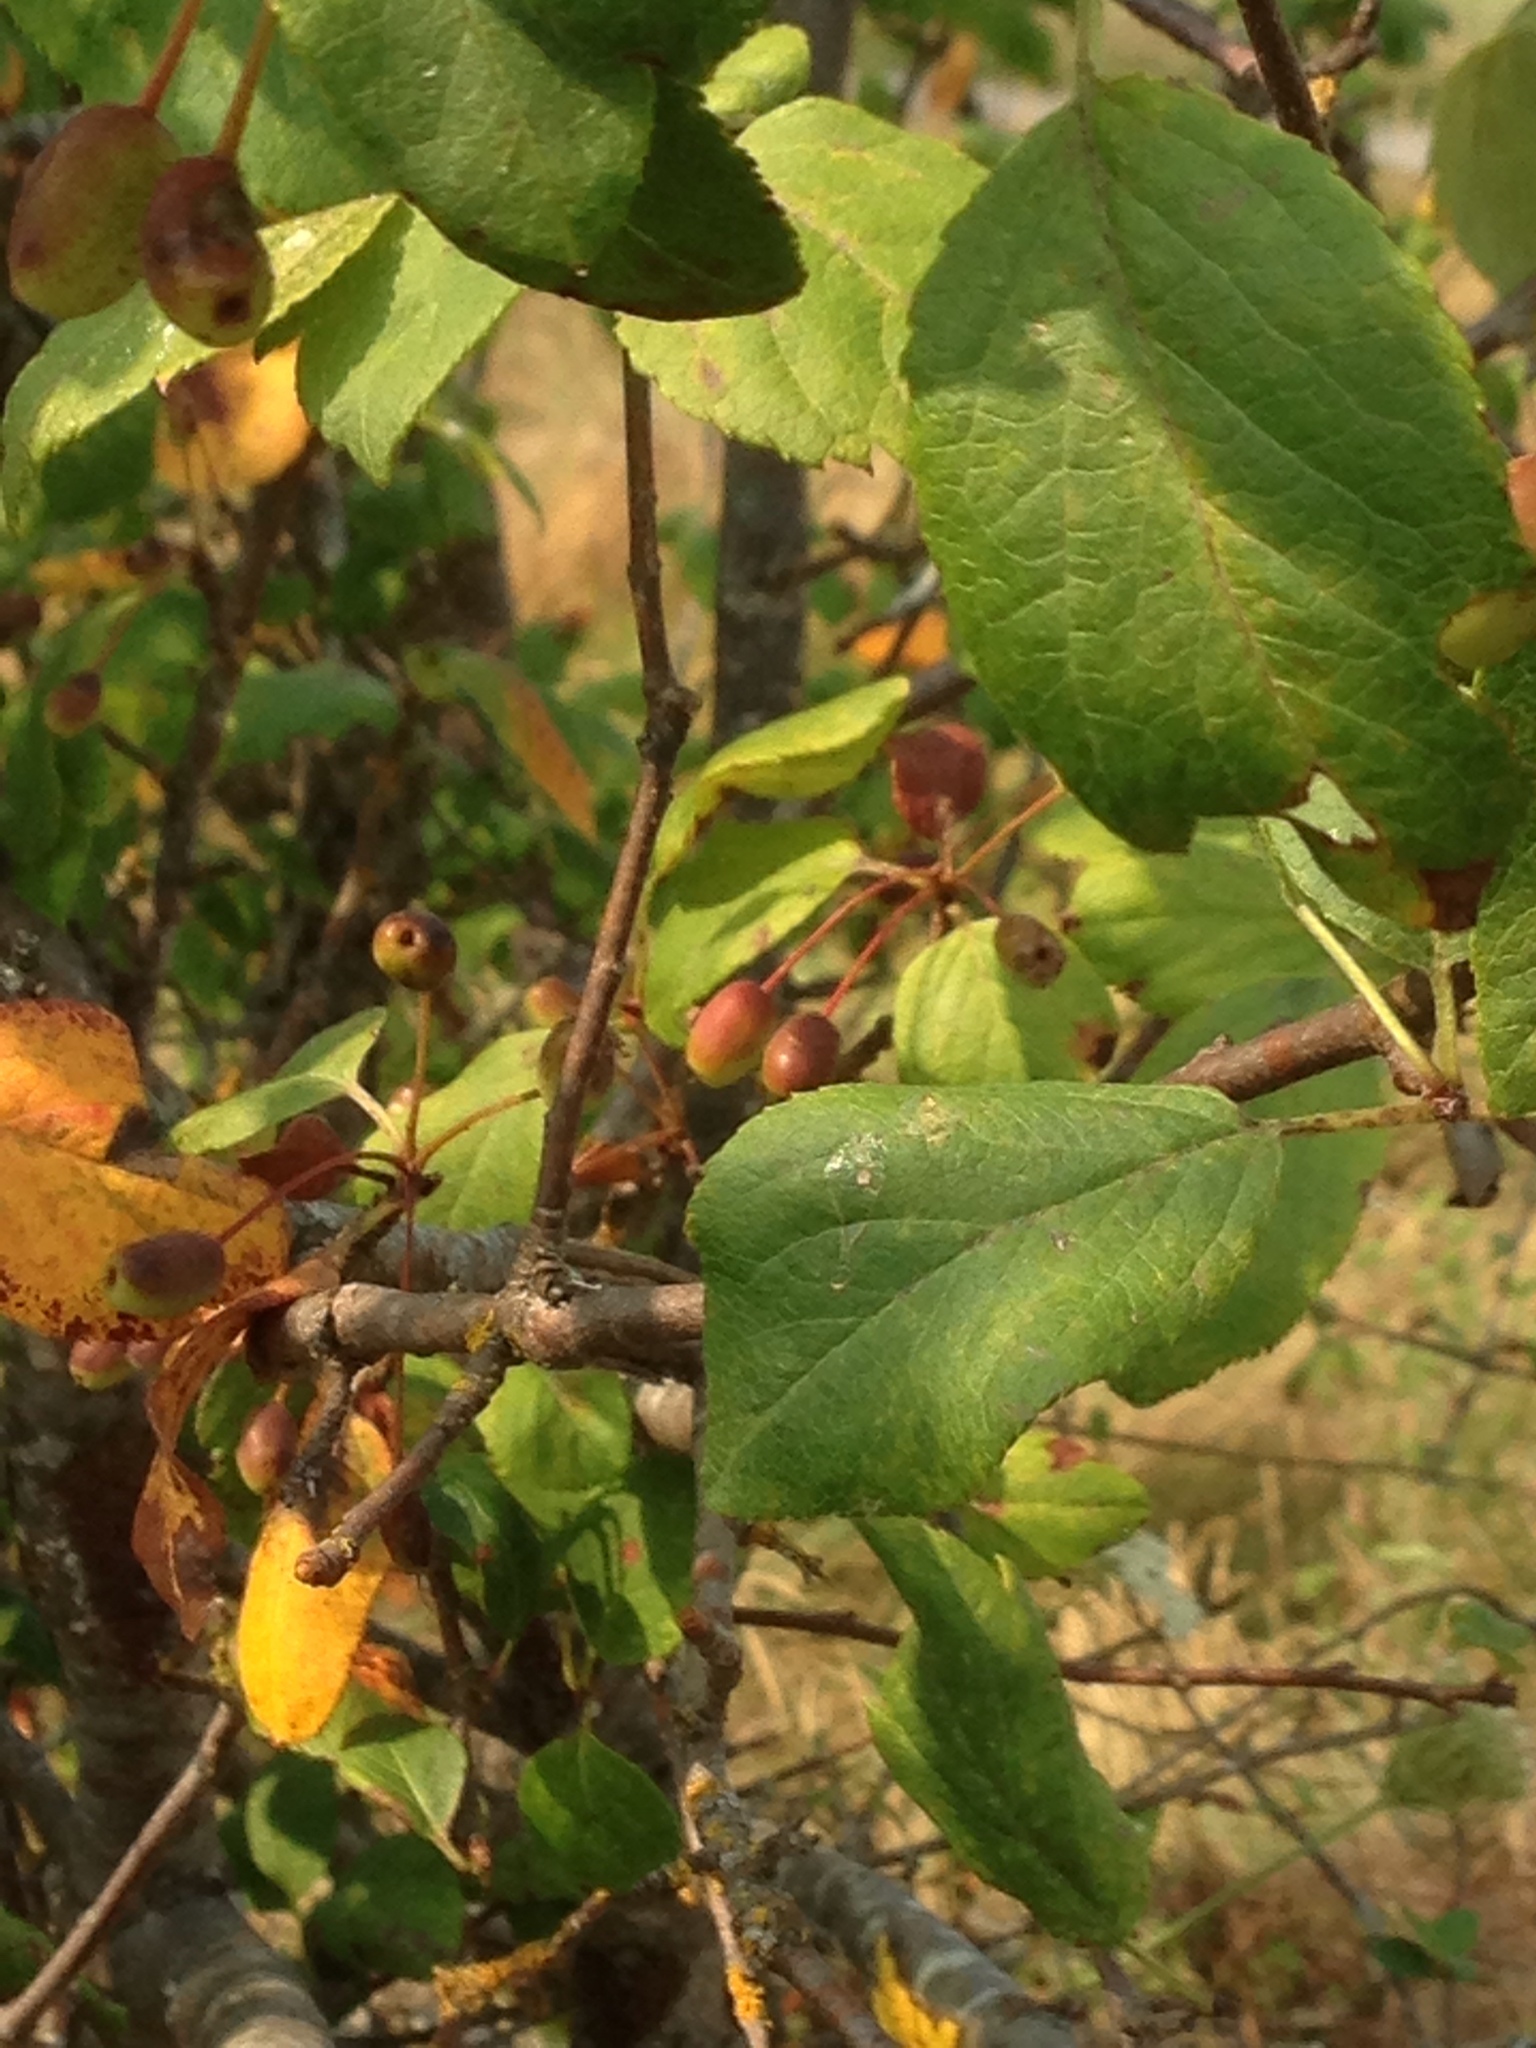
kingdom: Plantae
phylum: Tracheophyta
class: Magnoliopsida
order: Rosales
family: Rosaceae
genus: Malus
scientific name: Malus fusca
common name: Oregon crab apple
